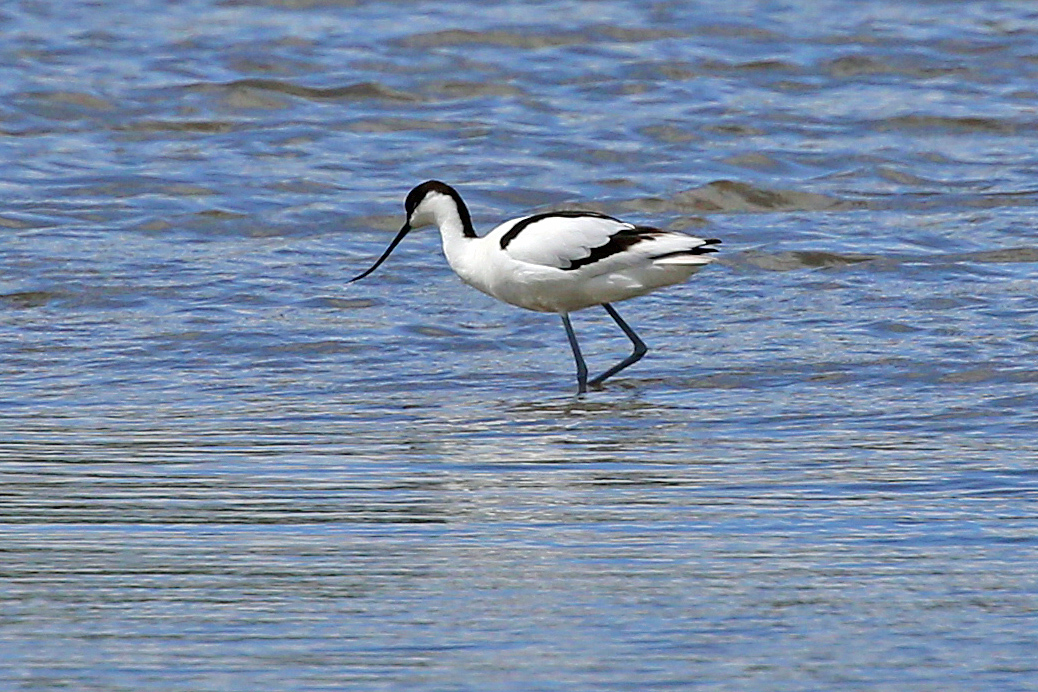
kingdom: Animalia
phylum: Chordata
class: Aves
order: Charadriiformes
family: Recurvirostridae
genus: Recurvirostra
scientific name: Recurvirostra avosetta
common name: Pied avocet
